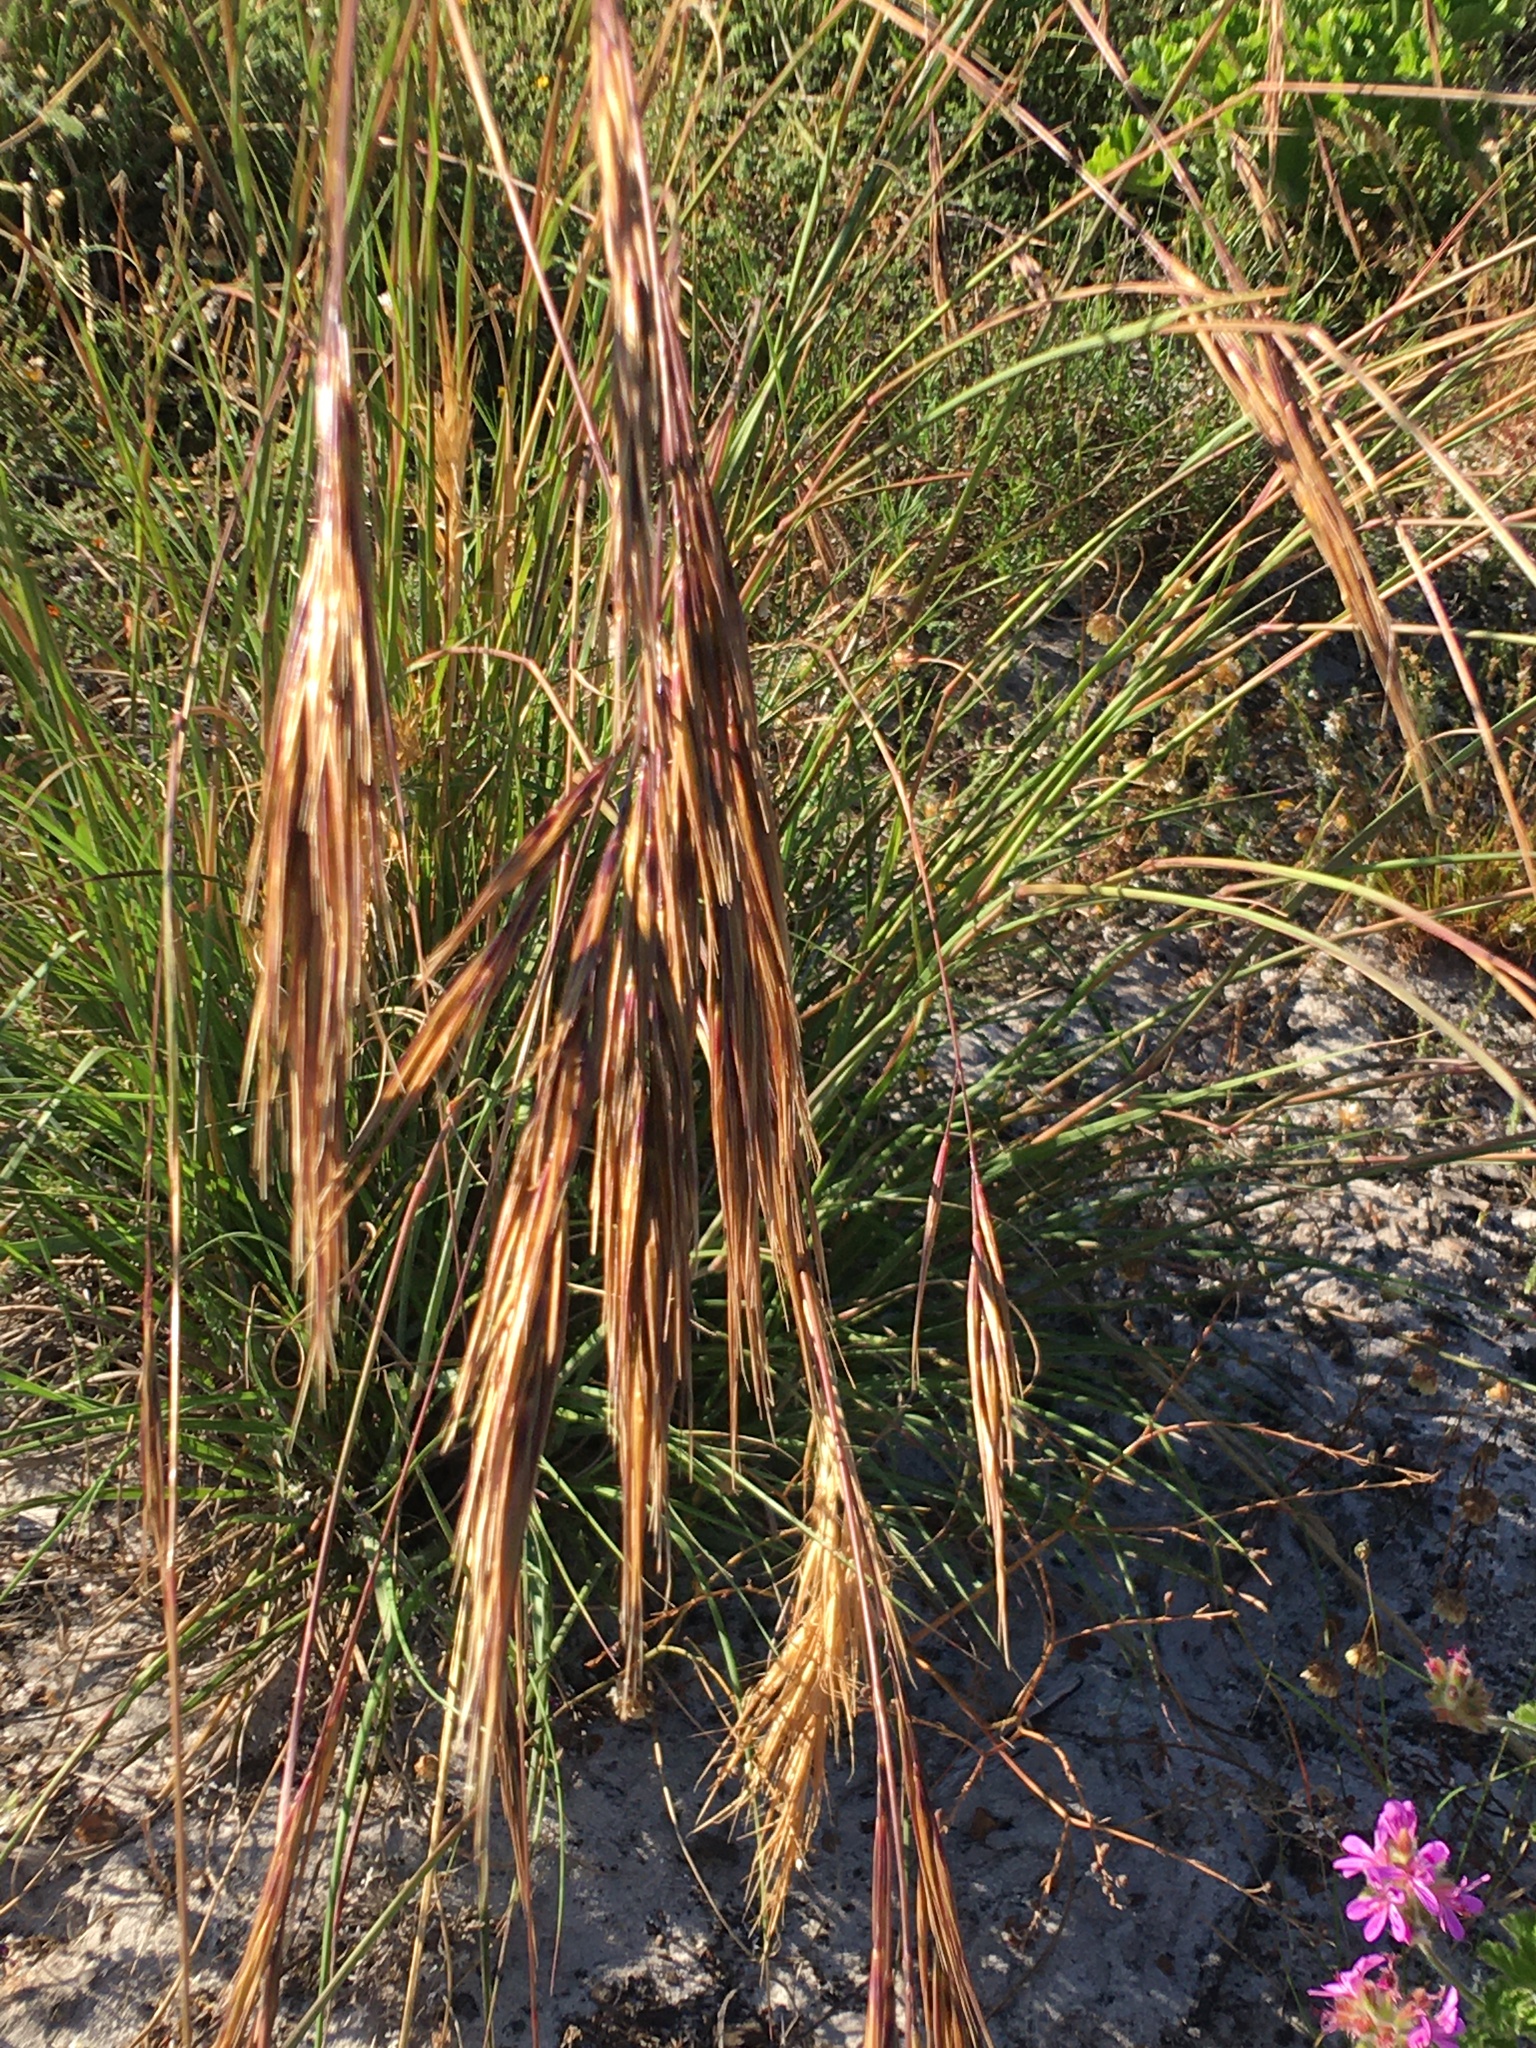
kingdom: Plantae
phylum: Tracheophyta
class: Liliopsida
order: Poales
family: Poaceae
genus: Pseudopentameris
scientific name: Pseudopentameris caespitosa
